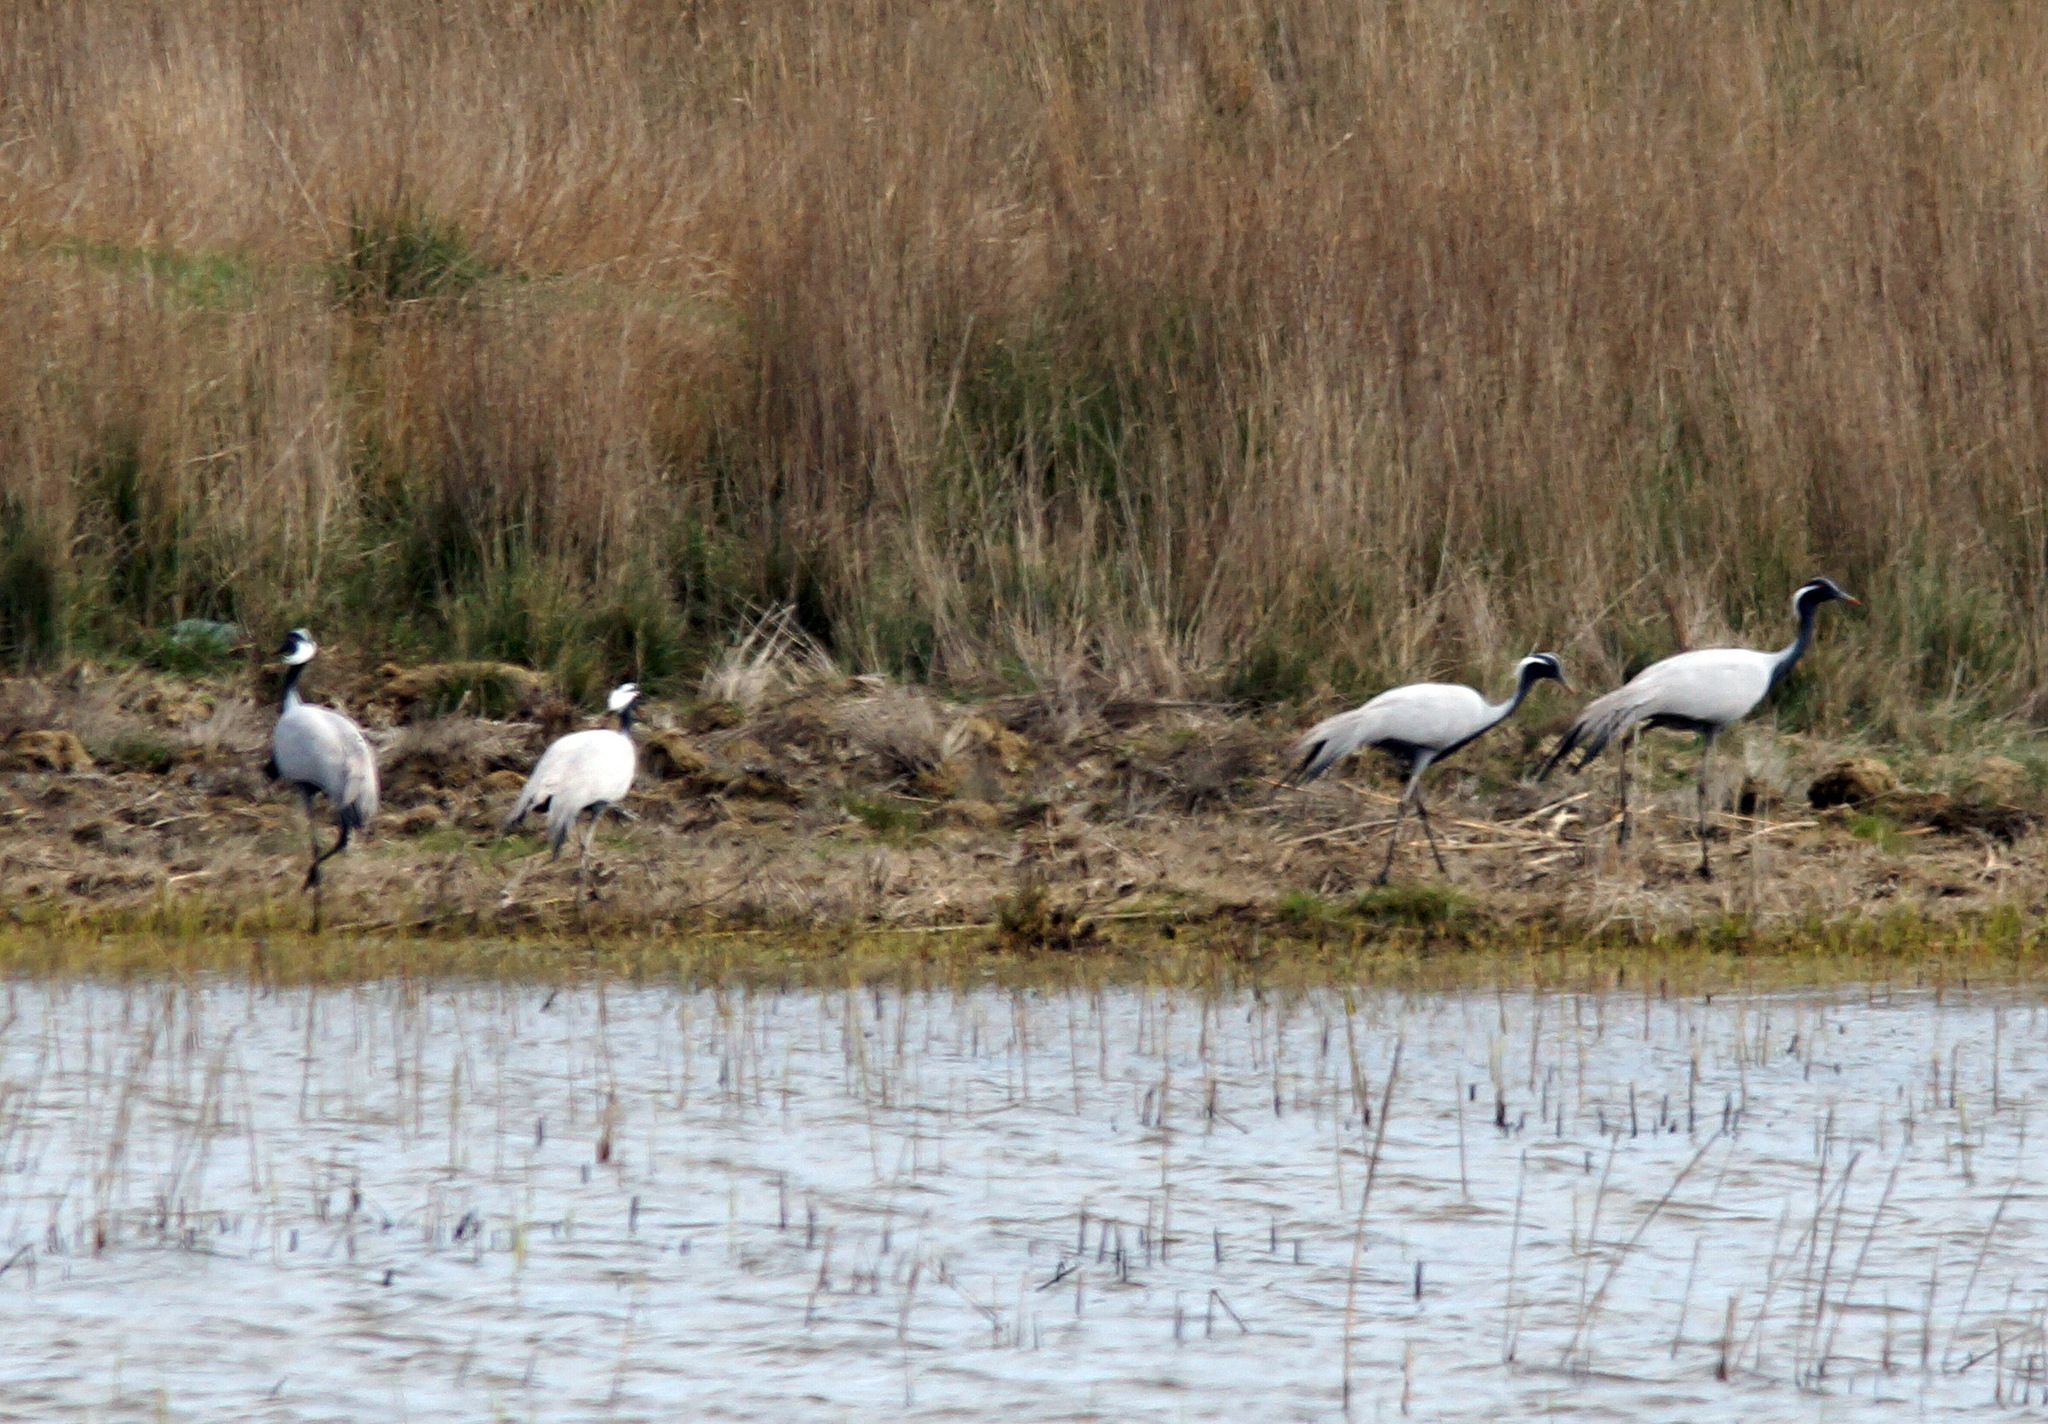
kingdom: Animalia
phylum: Chordata
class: Aves
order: Gruiformes
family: Gruidae
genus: Anthropoides
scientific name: Anthropoides virgo
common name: Demoiselle crane
